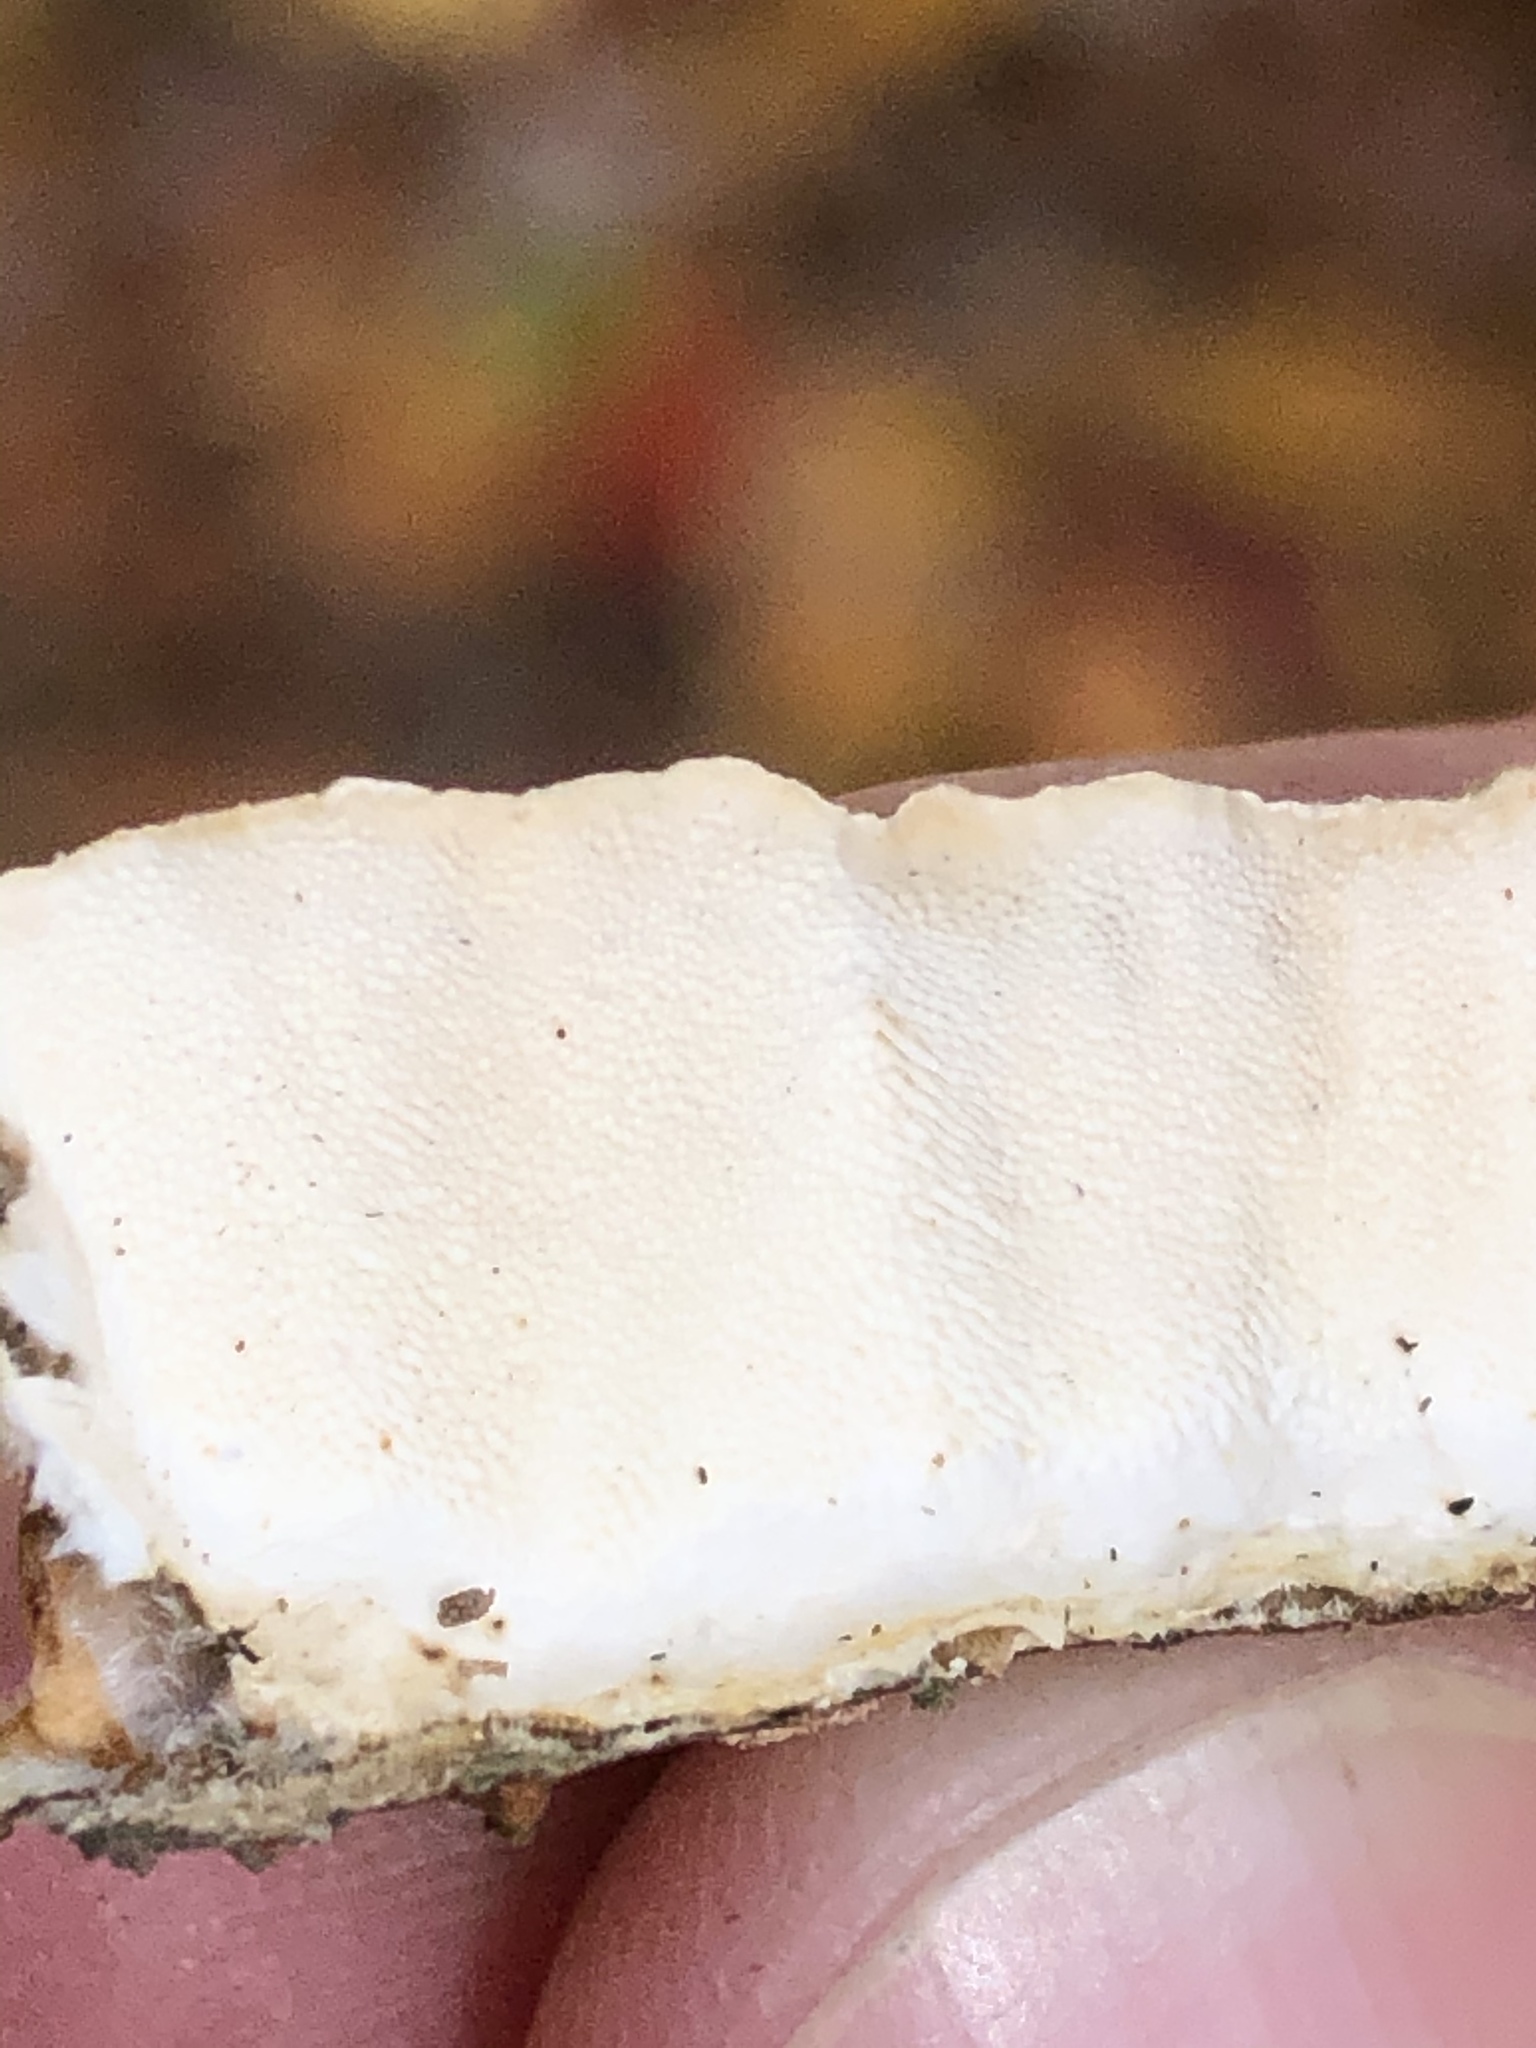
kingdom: Fungi
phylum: Basidiomycota
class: Agaricomycetes
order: Polyporales
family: Polyporaceae
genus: Trametes
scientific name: Trametes versicolor
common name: Turkeytail
